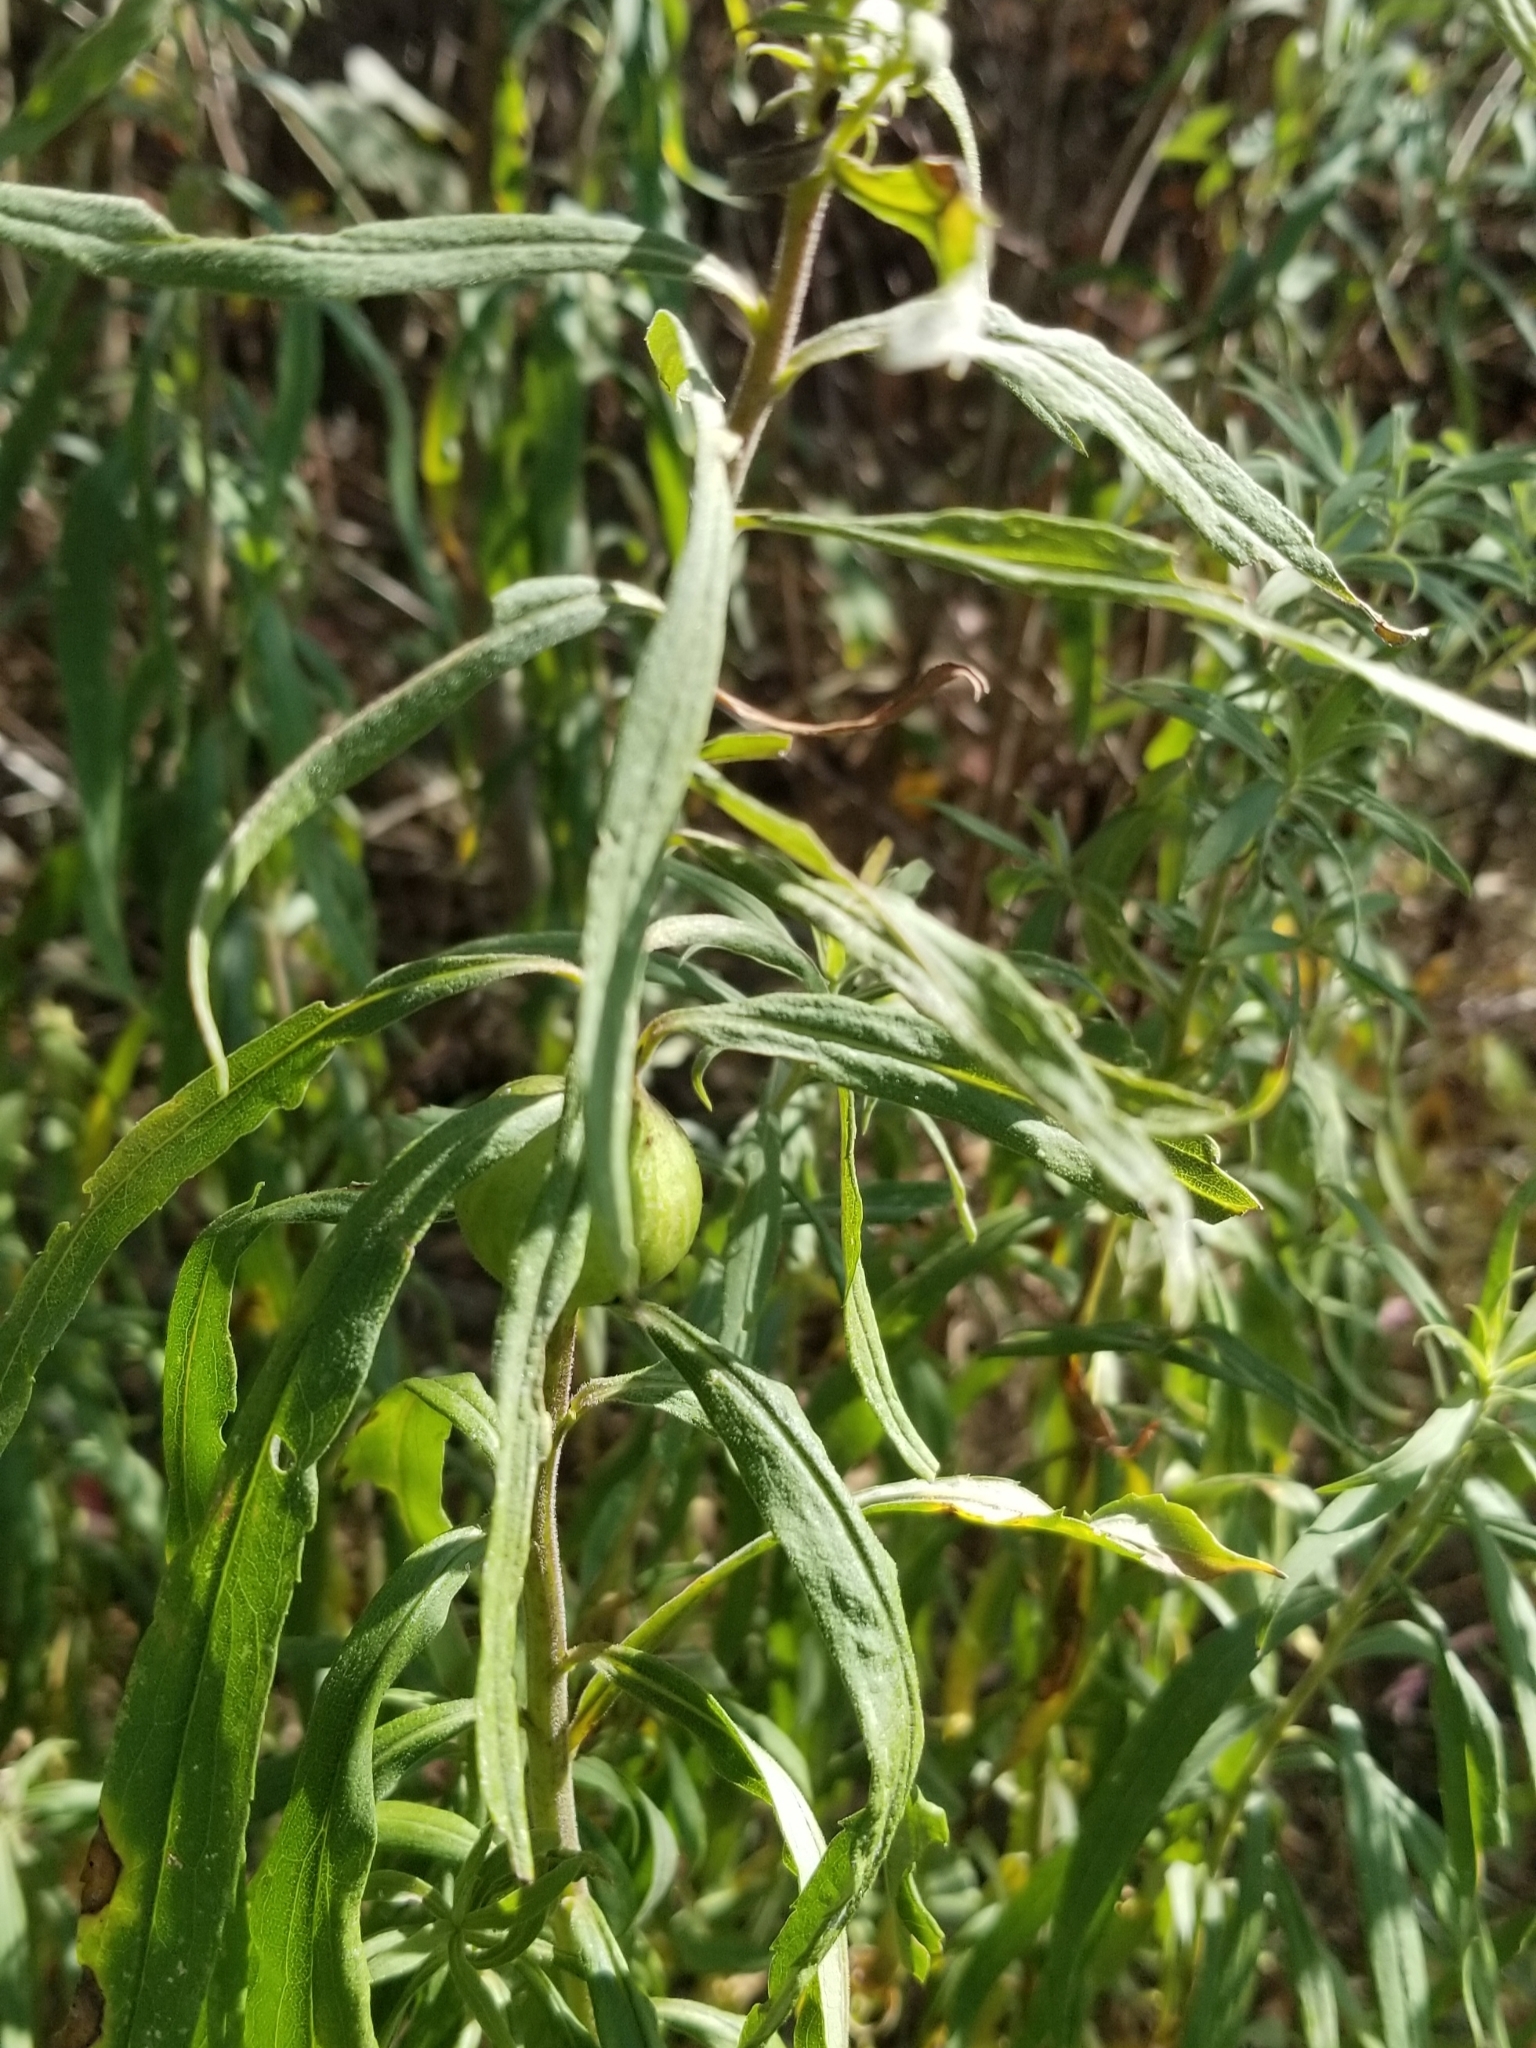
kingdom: Animalia
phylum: Arthropoda
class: Insecta
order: Diptera
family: Tephritidae
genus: Eurosta
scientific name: Eurosta solidaginis
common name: Goldenrod gall fly
